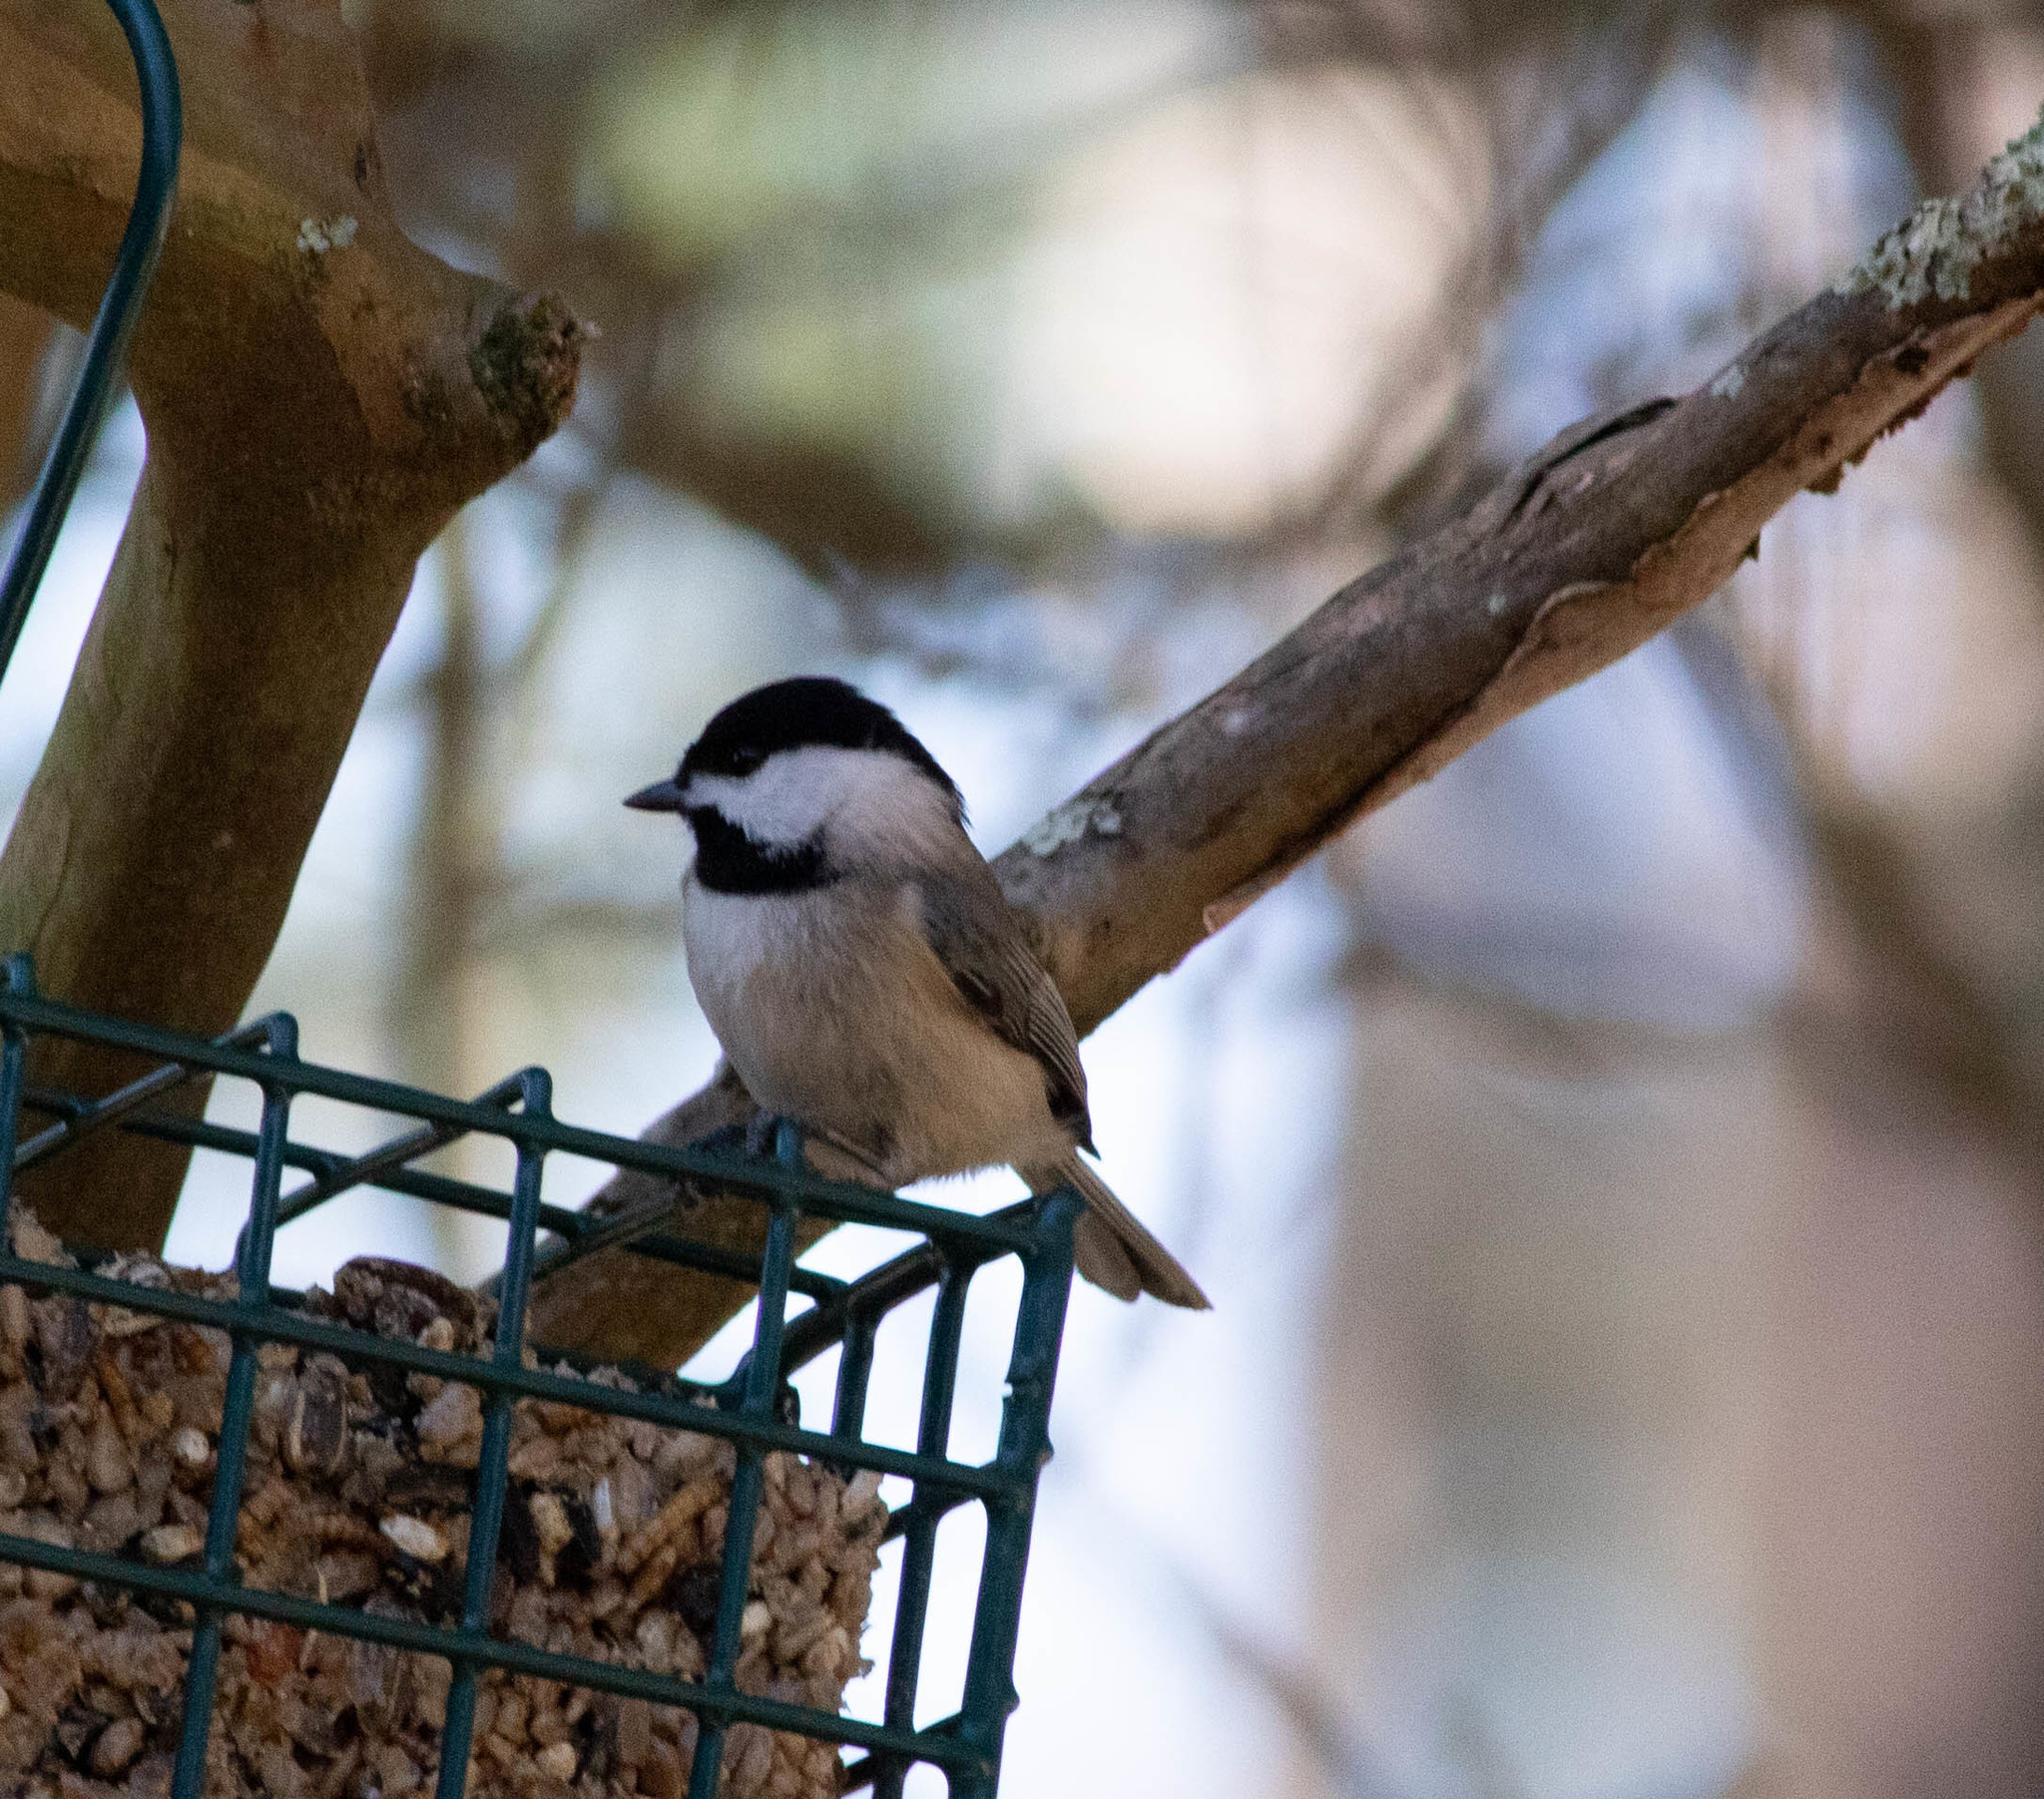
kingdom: Animalia
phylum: Chordata
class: Aves
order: Passeriformes
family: Paridae
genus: Poecile
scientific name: Poecile carolinensis
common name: Carolina chickadee
